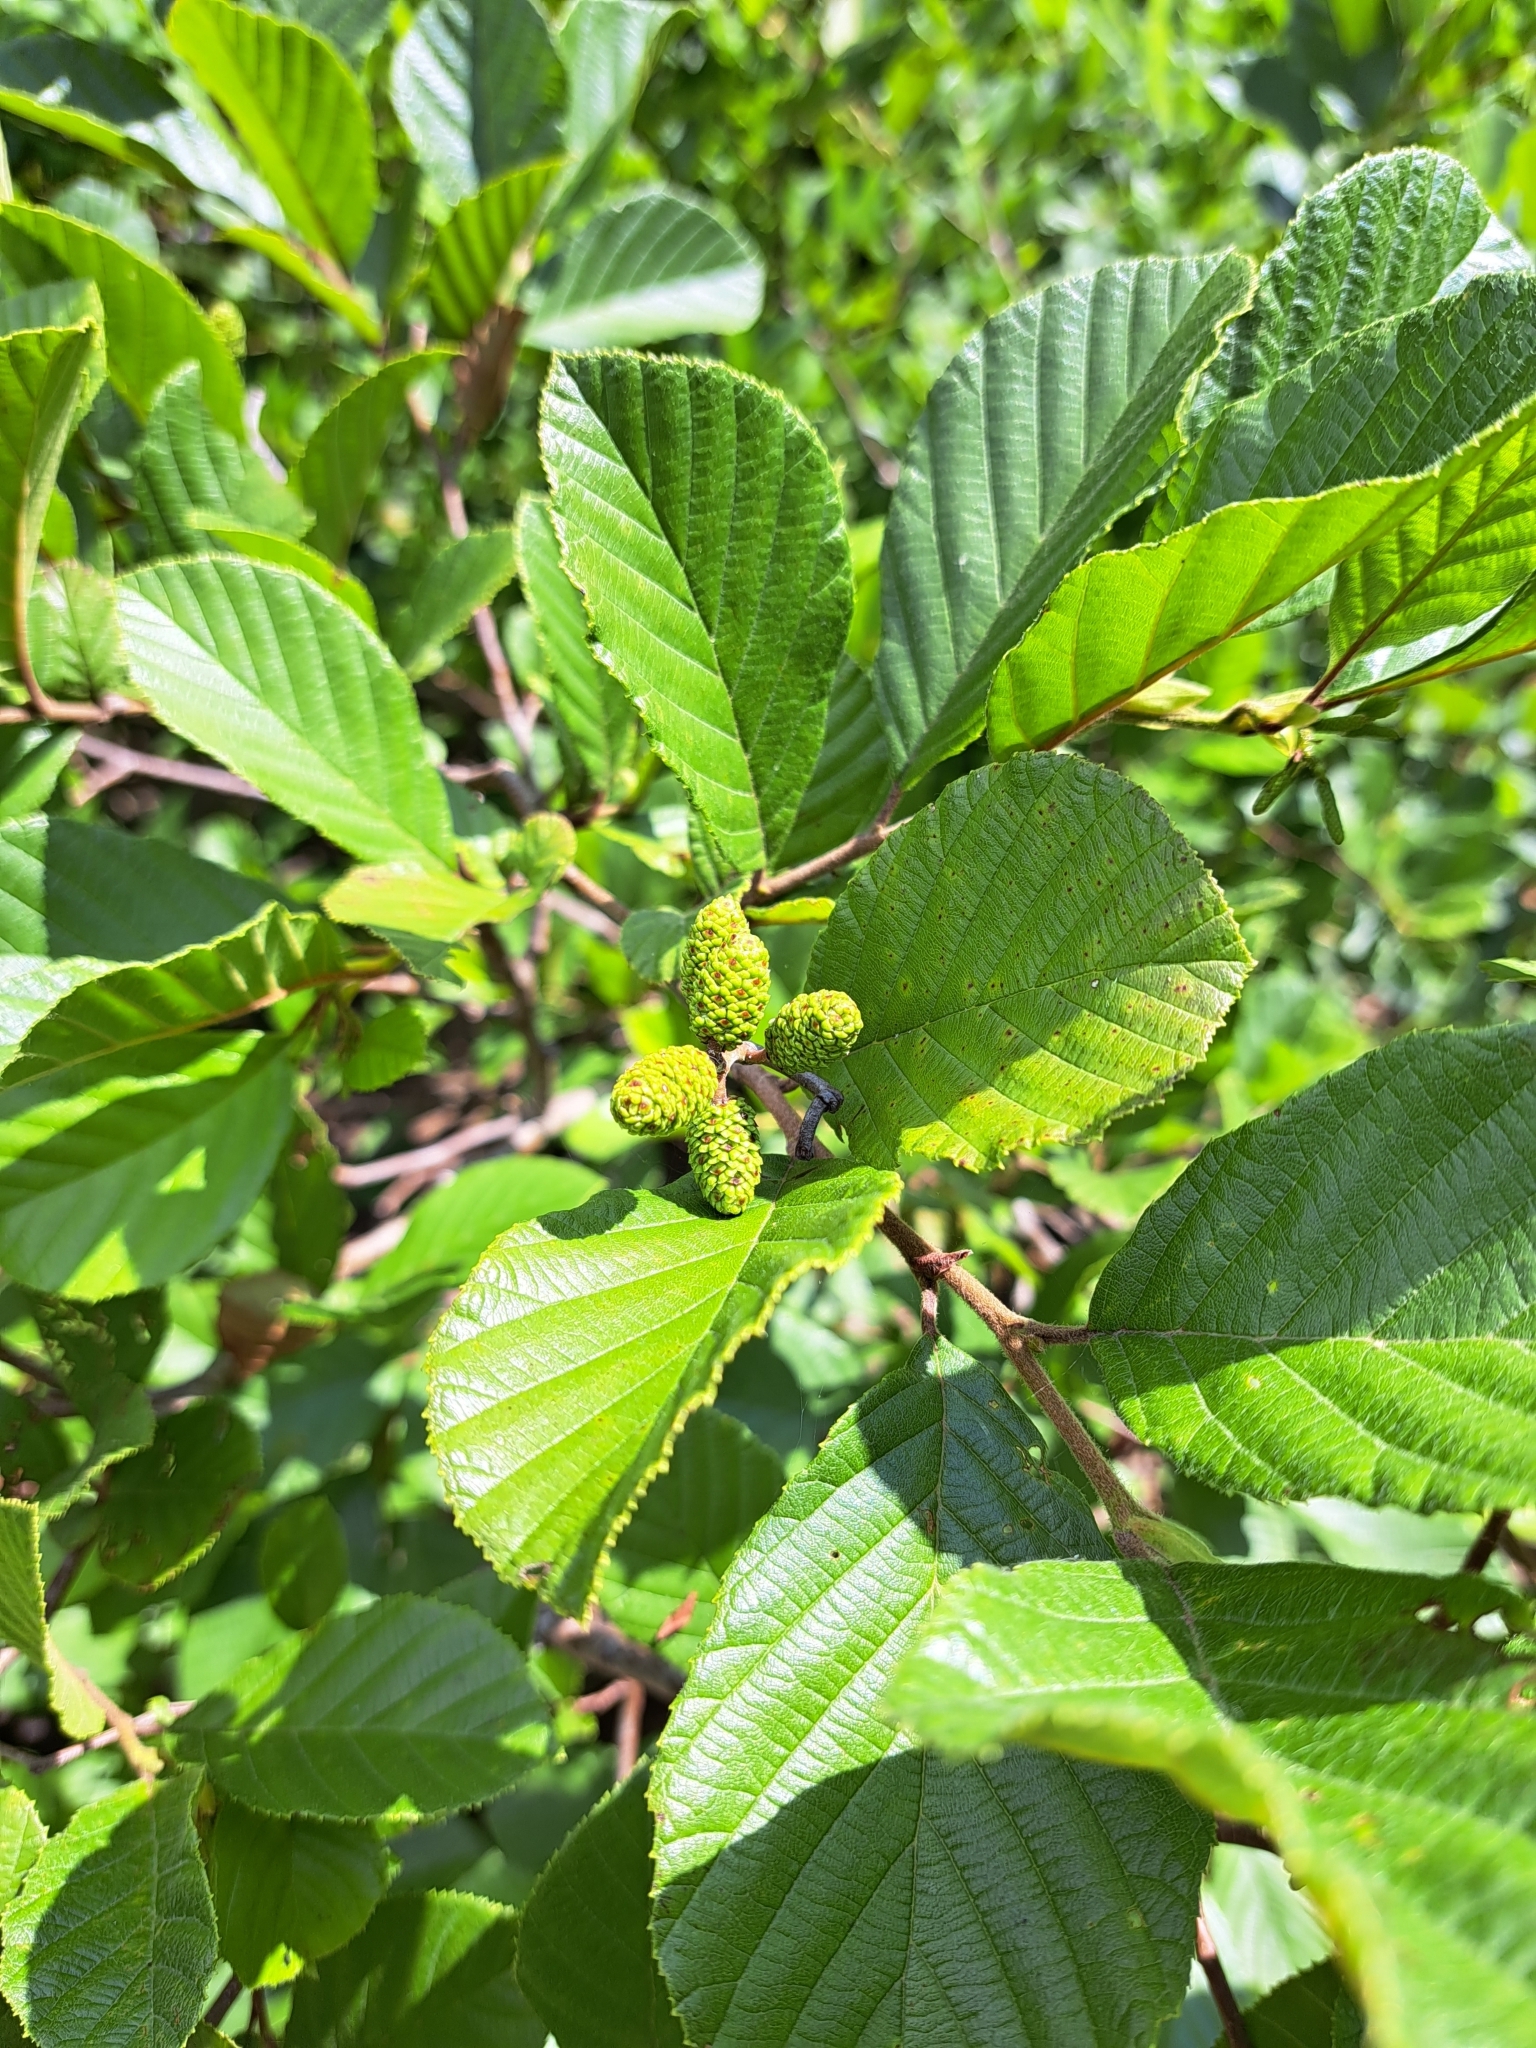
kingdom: Plantae
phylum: Tracheophyta
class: Magnoliopsida
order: Fagales
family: Betulaceae
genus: Alnus
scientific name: Alnus serrulata
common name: Hazel alder
